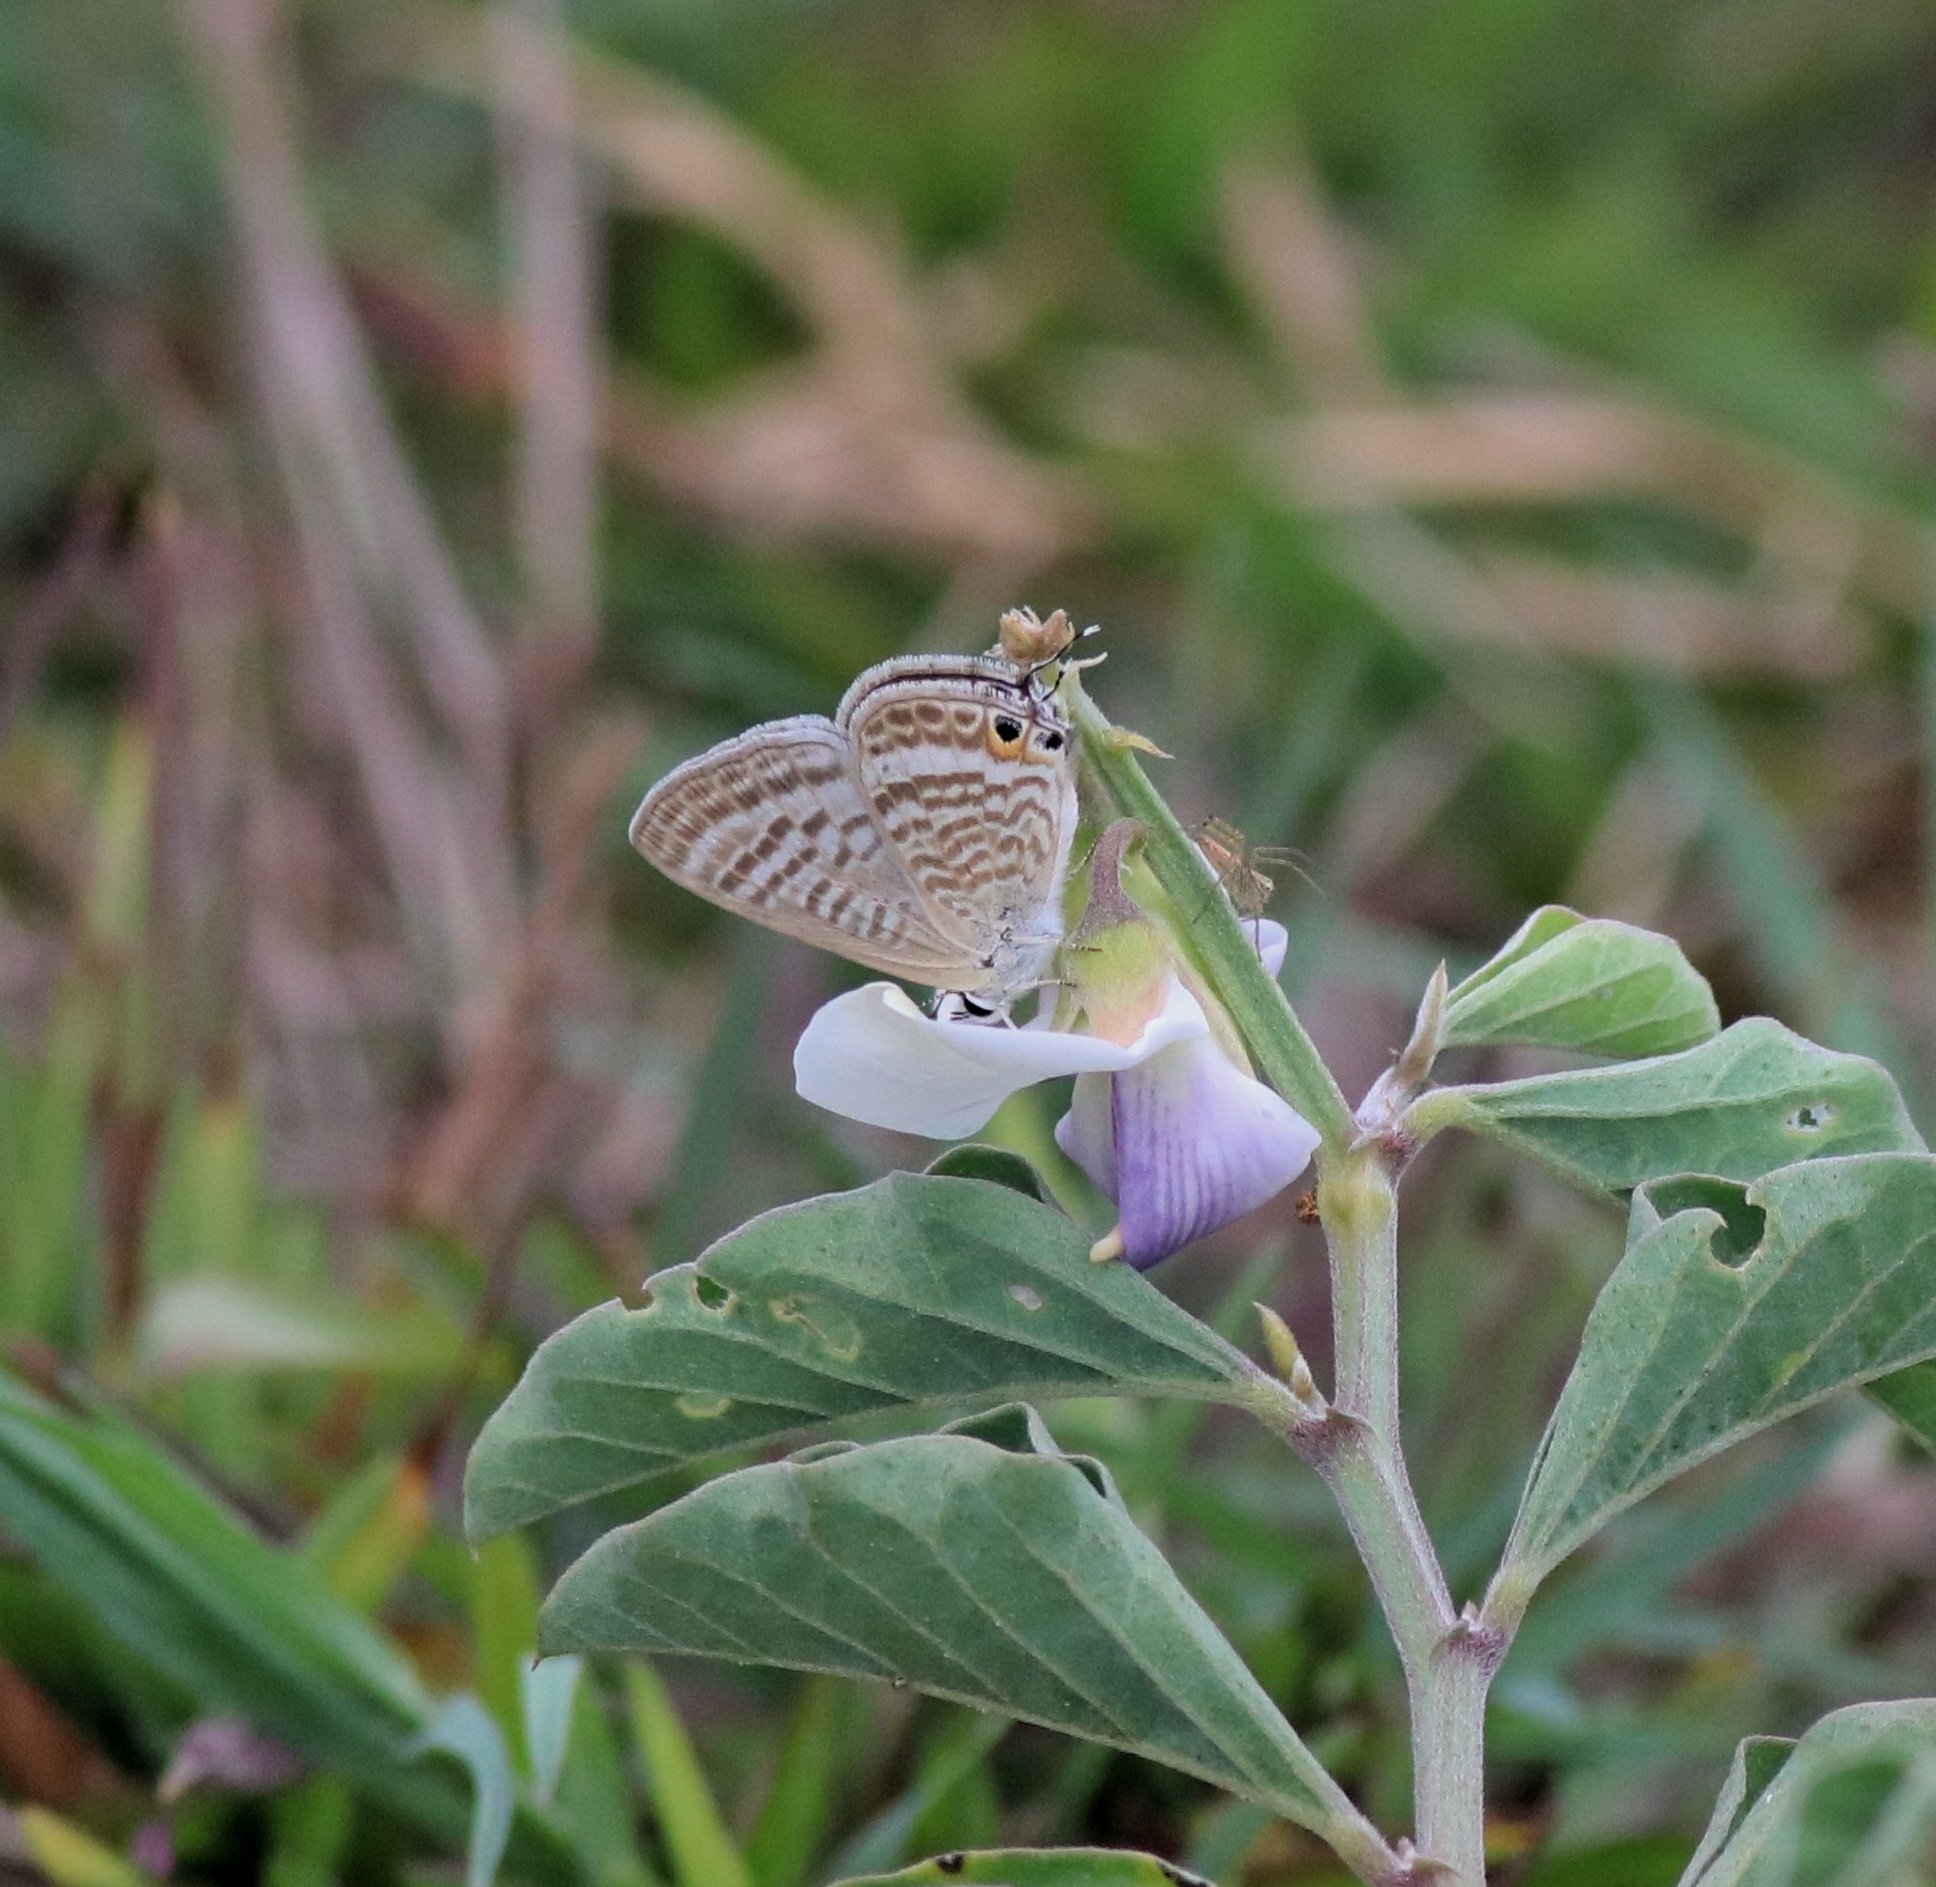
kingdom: Animalia
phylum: Arthropoda
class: Insecta
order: Lepidoptera
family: Lycaenidae
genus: Lampides
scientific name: Lampides boeticus
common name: Long-tailed blue
